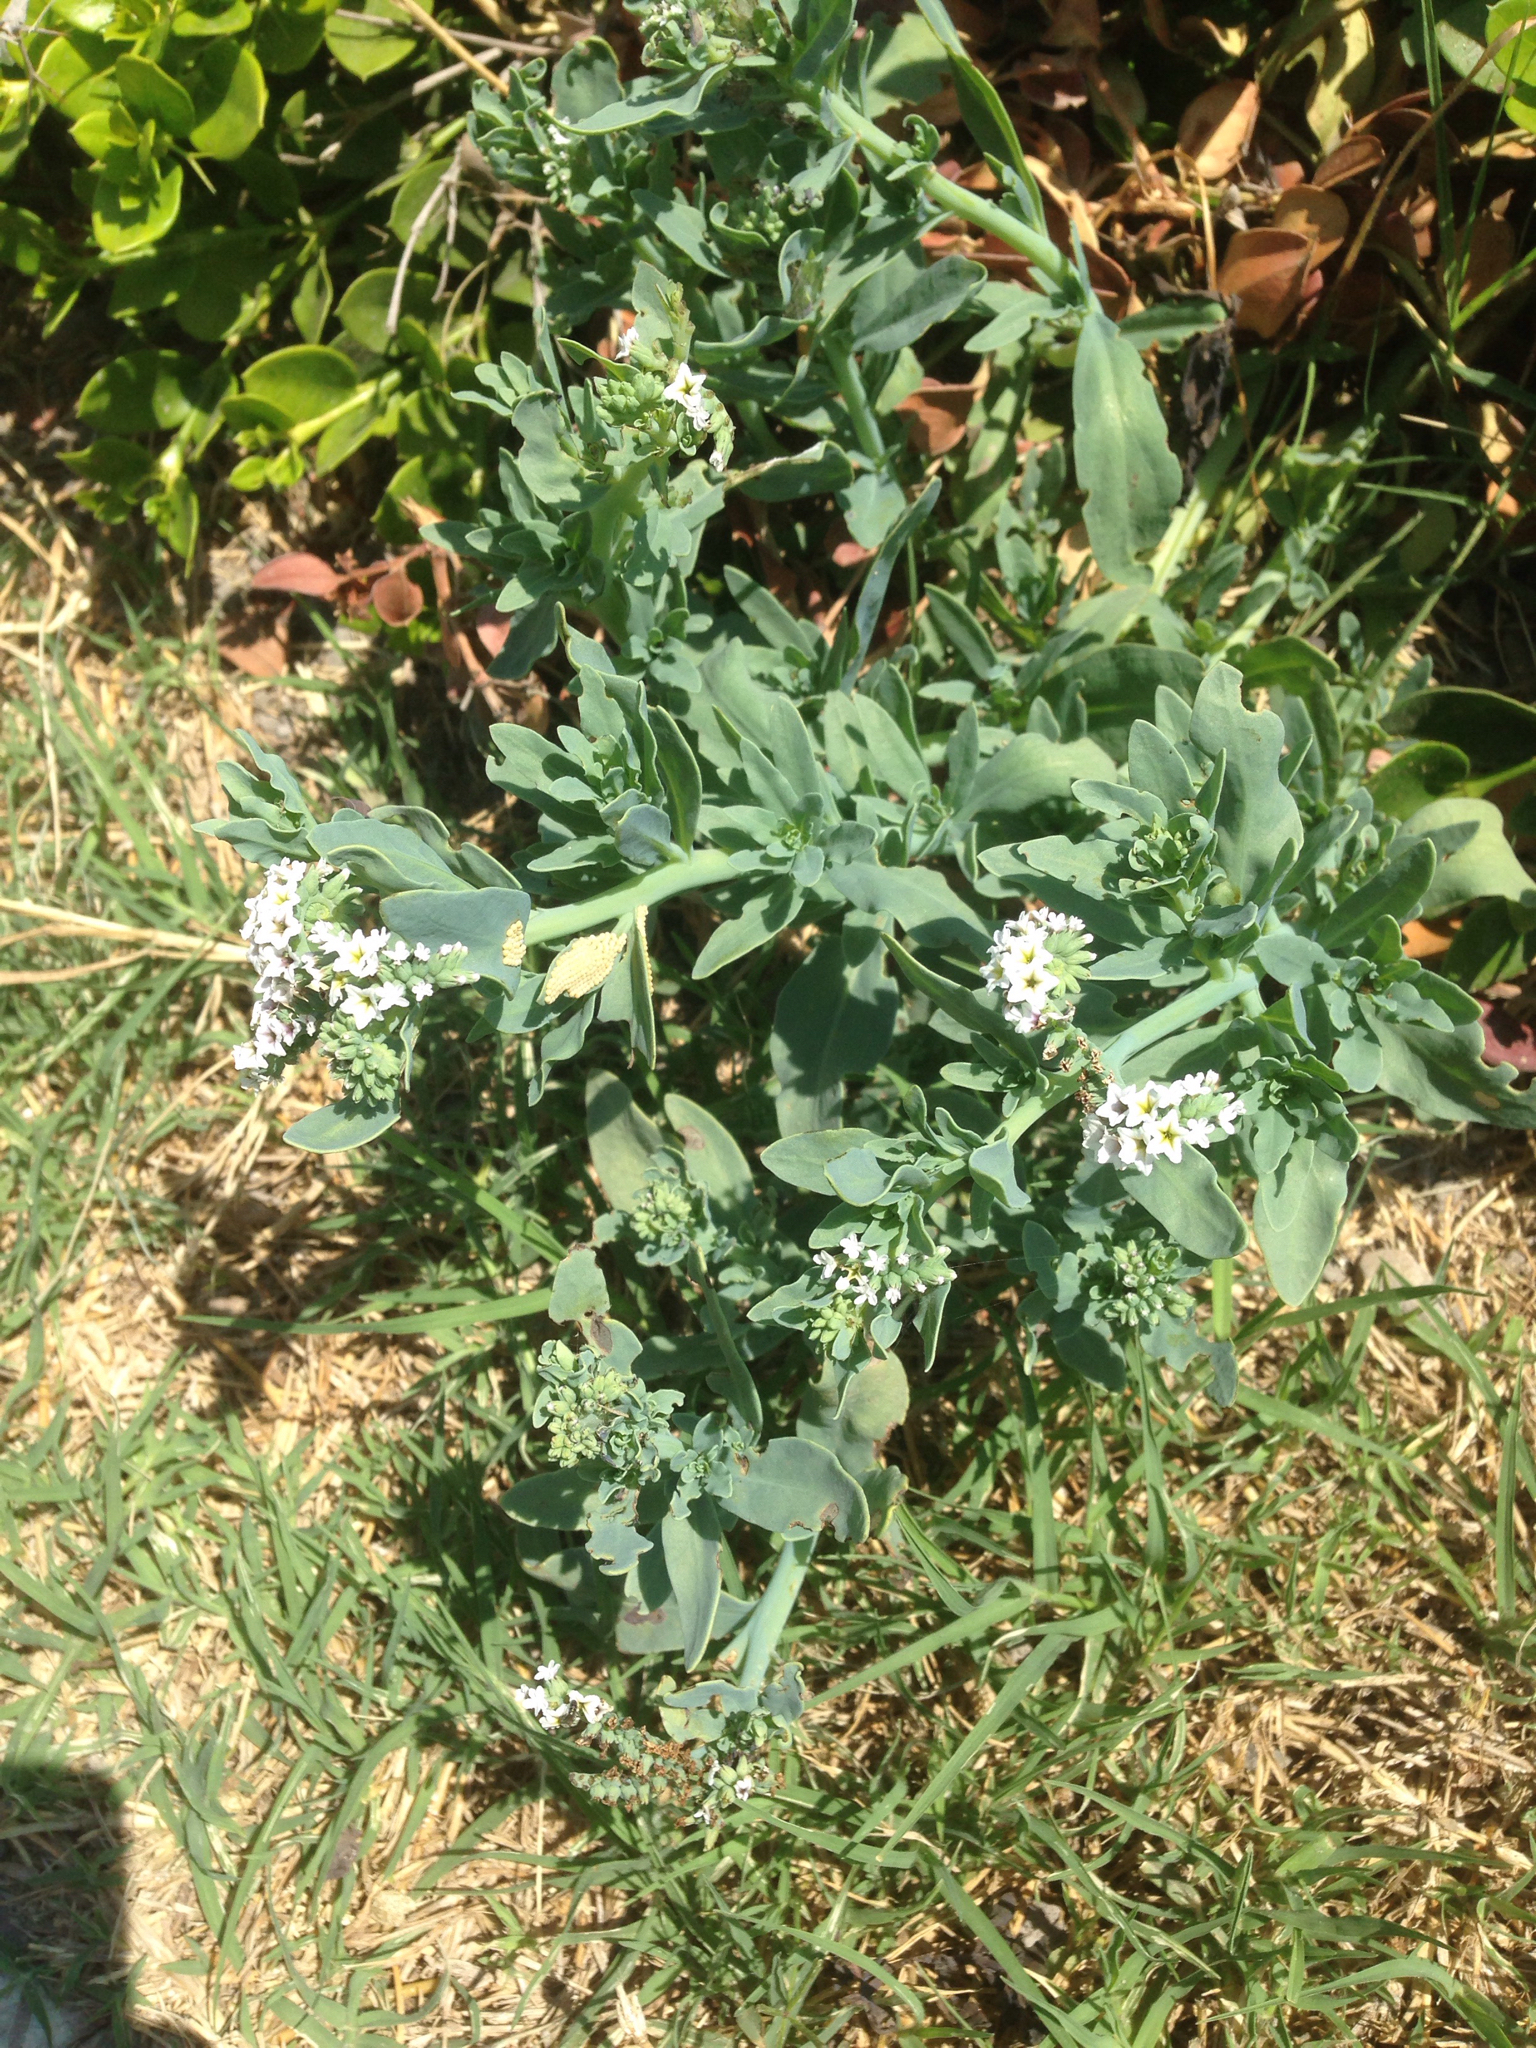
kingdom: Plantae
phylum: Tracheophyta
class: Magnoliopsida
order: Boraginales
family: Heliotropiaceae
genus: Heliotropium
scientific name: Heliotropium curassavicum
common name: Seaside heliotrope
